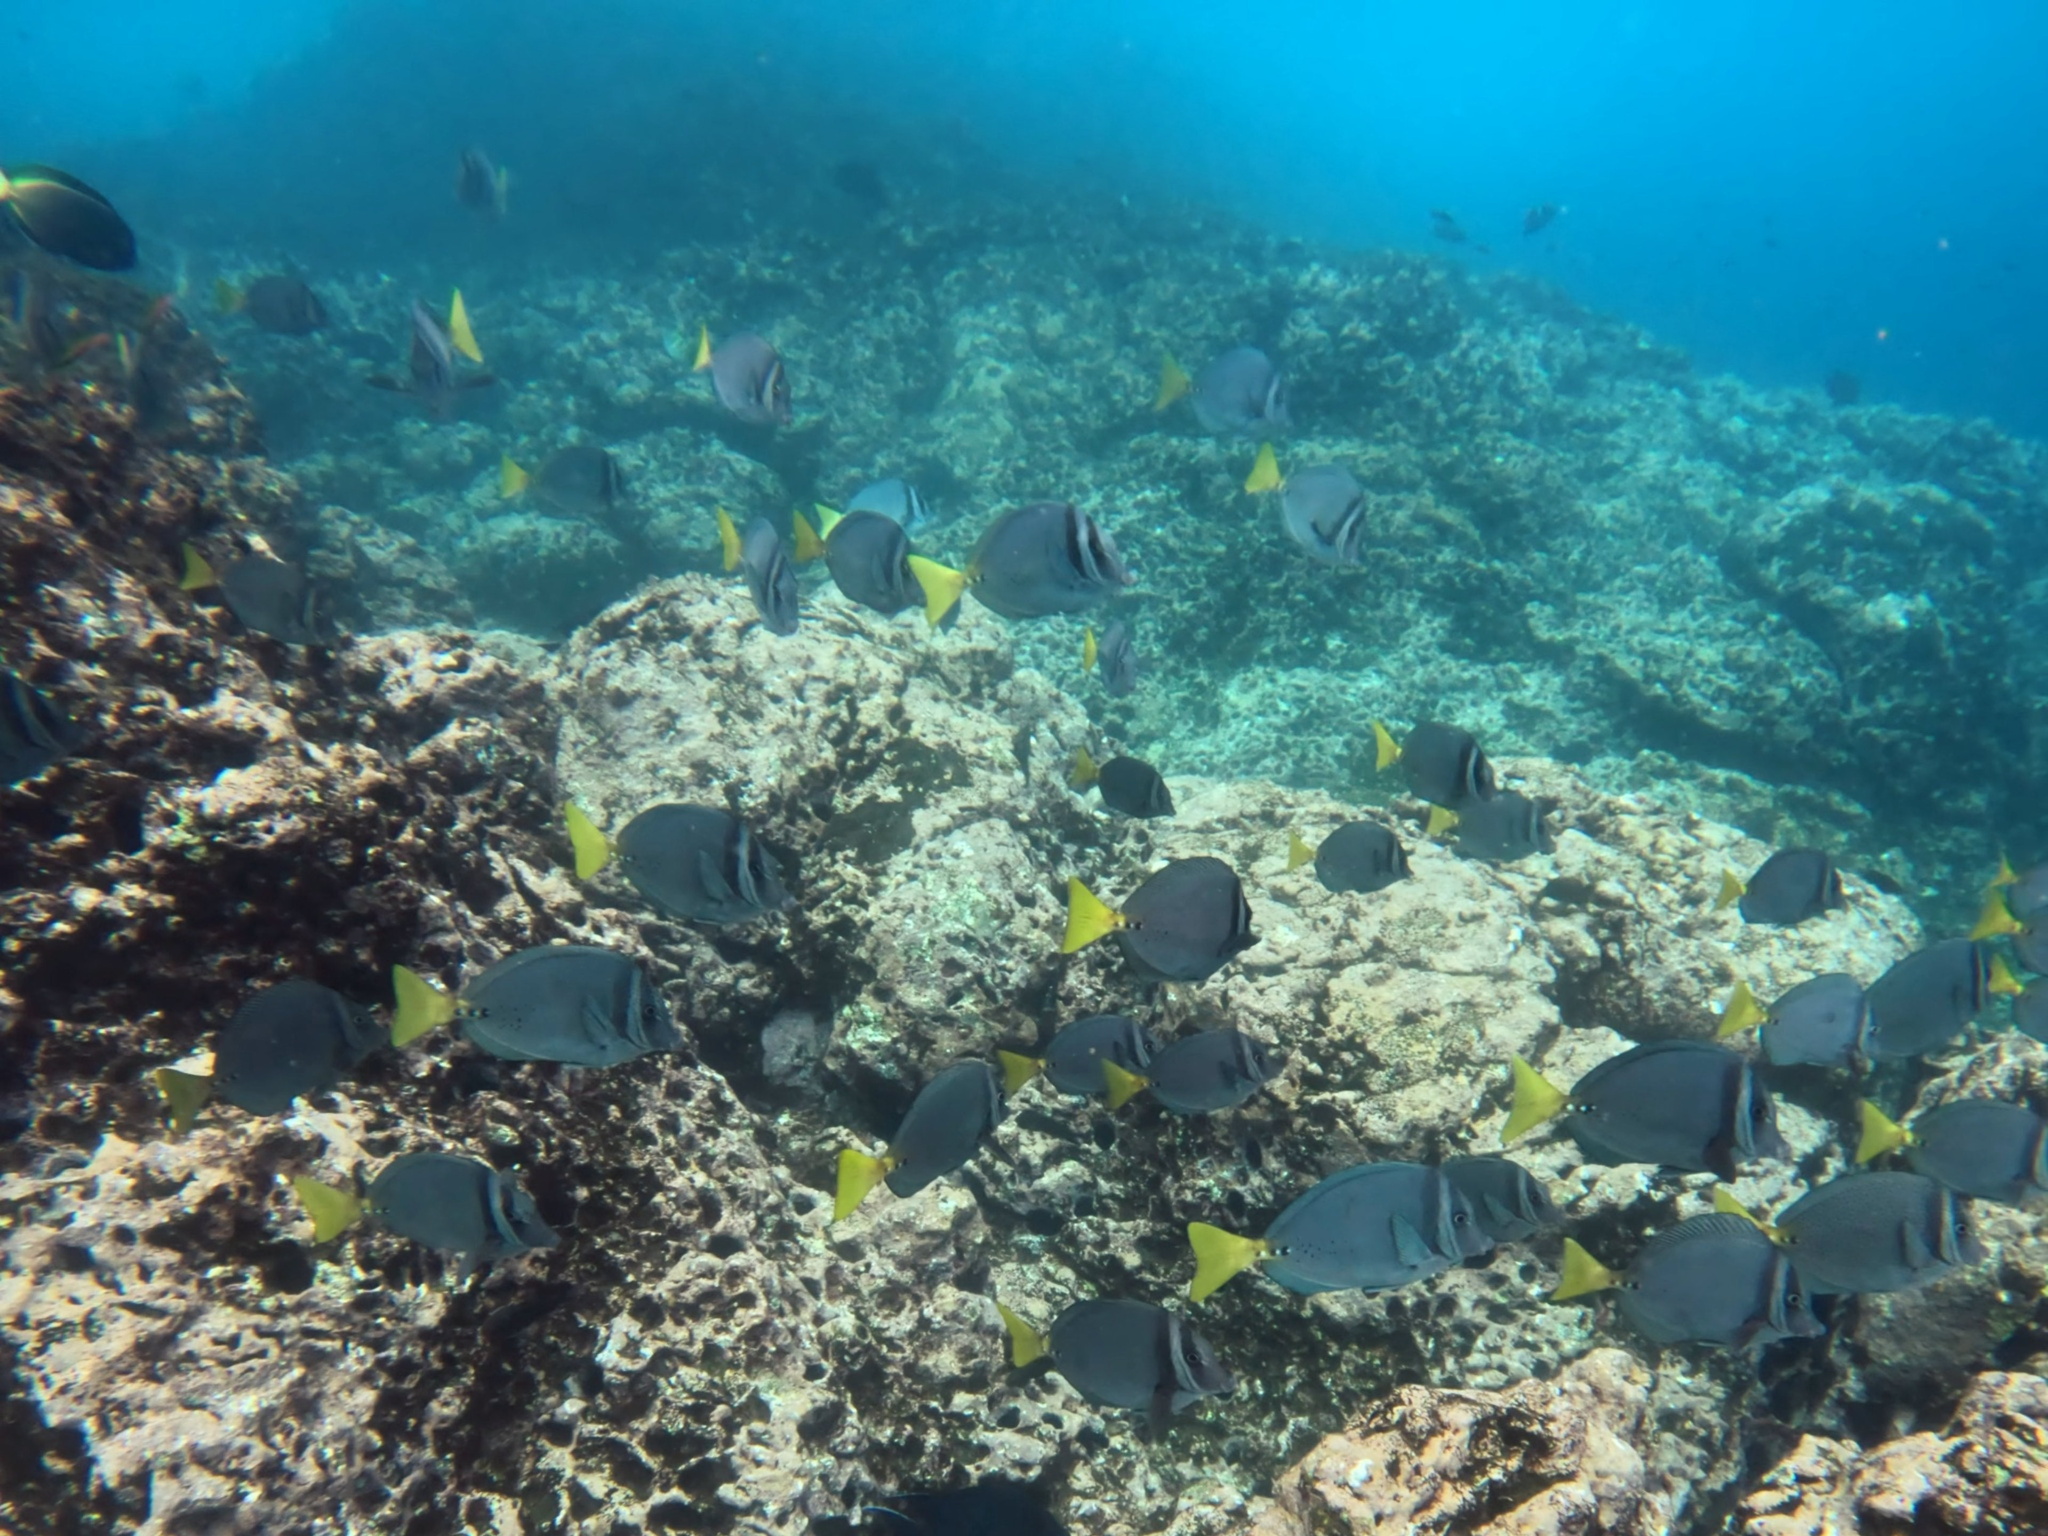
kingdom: Animalia
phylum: Chordata
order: Perciformes
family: Acanthuridae
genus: Prionurus
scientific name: Prionurus laticlavius
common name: Razor surgeonfish
